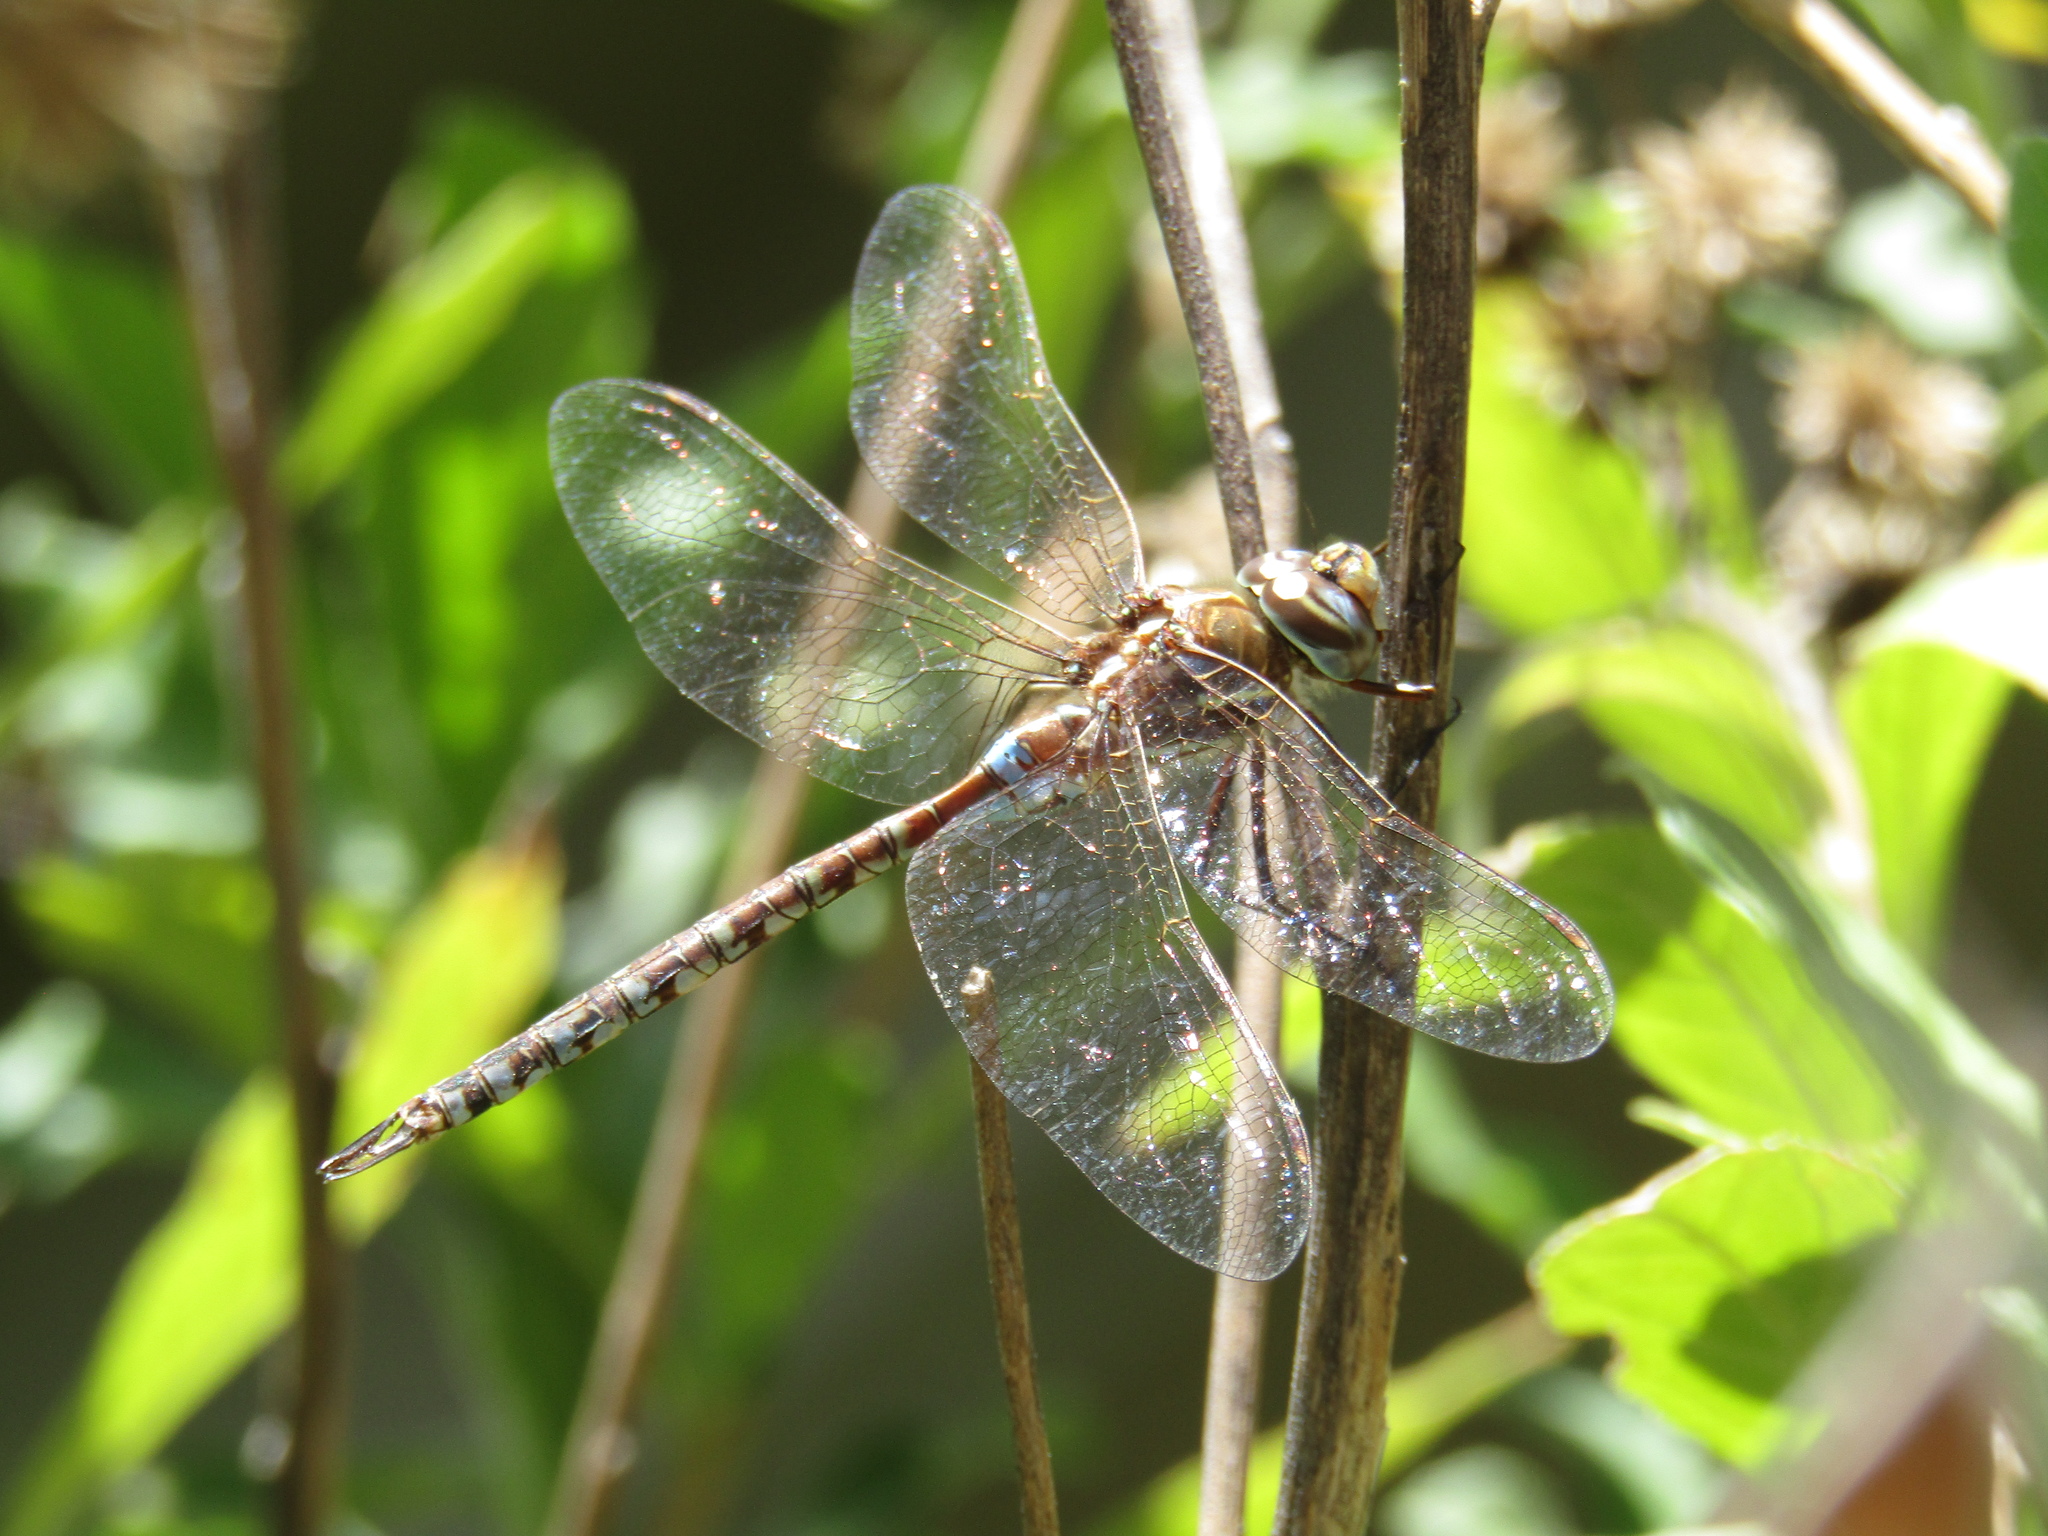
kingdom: Animalia
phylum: Arthropoda
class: Insecta
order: Odonata
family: Aeshnidae
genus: Rhionaeschna
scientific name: Rhionaeschna bonariensis
